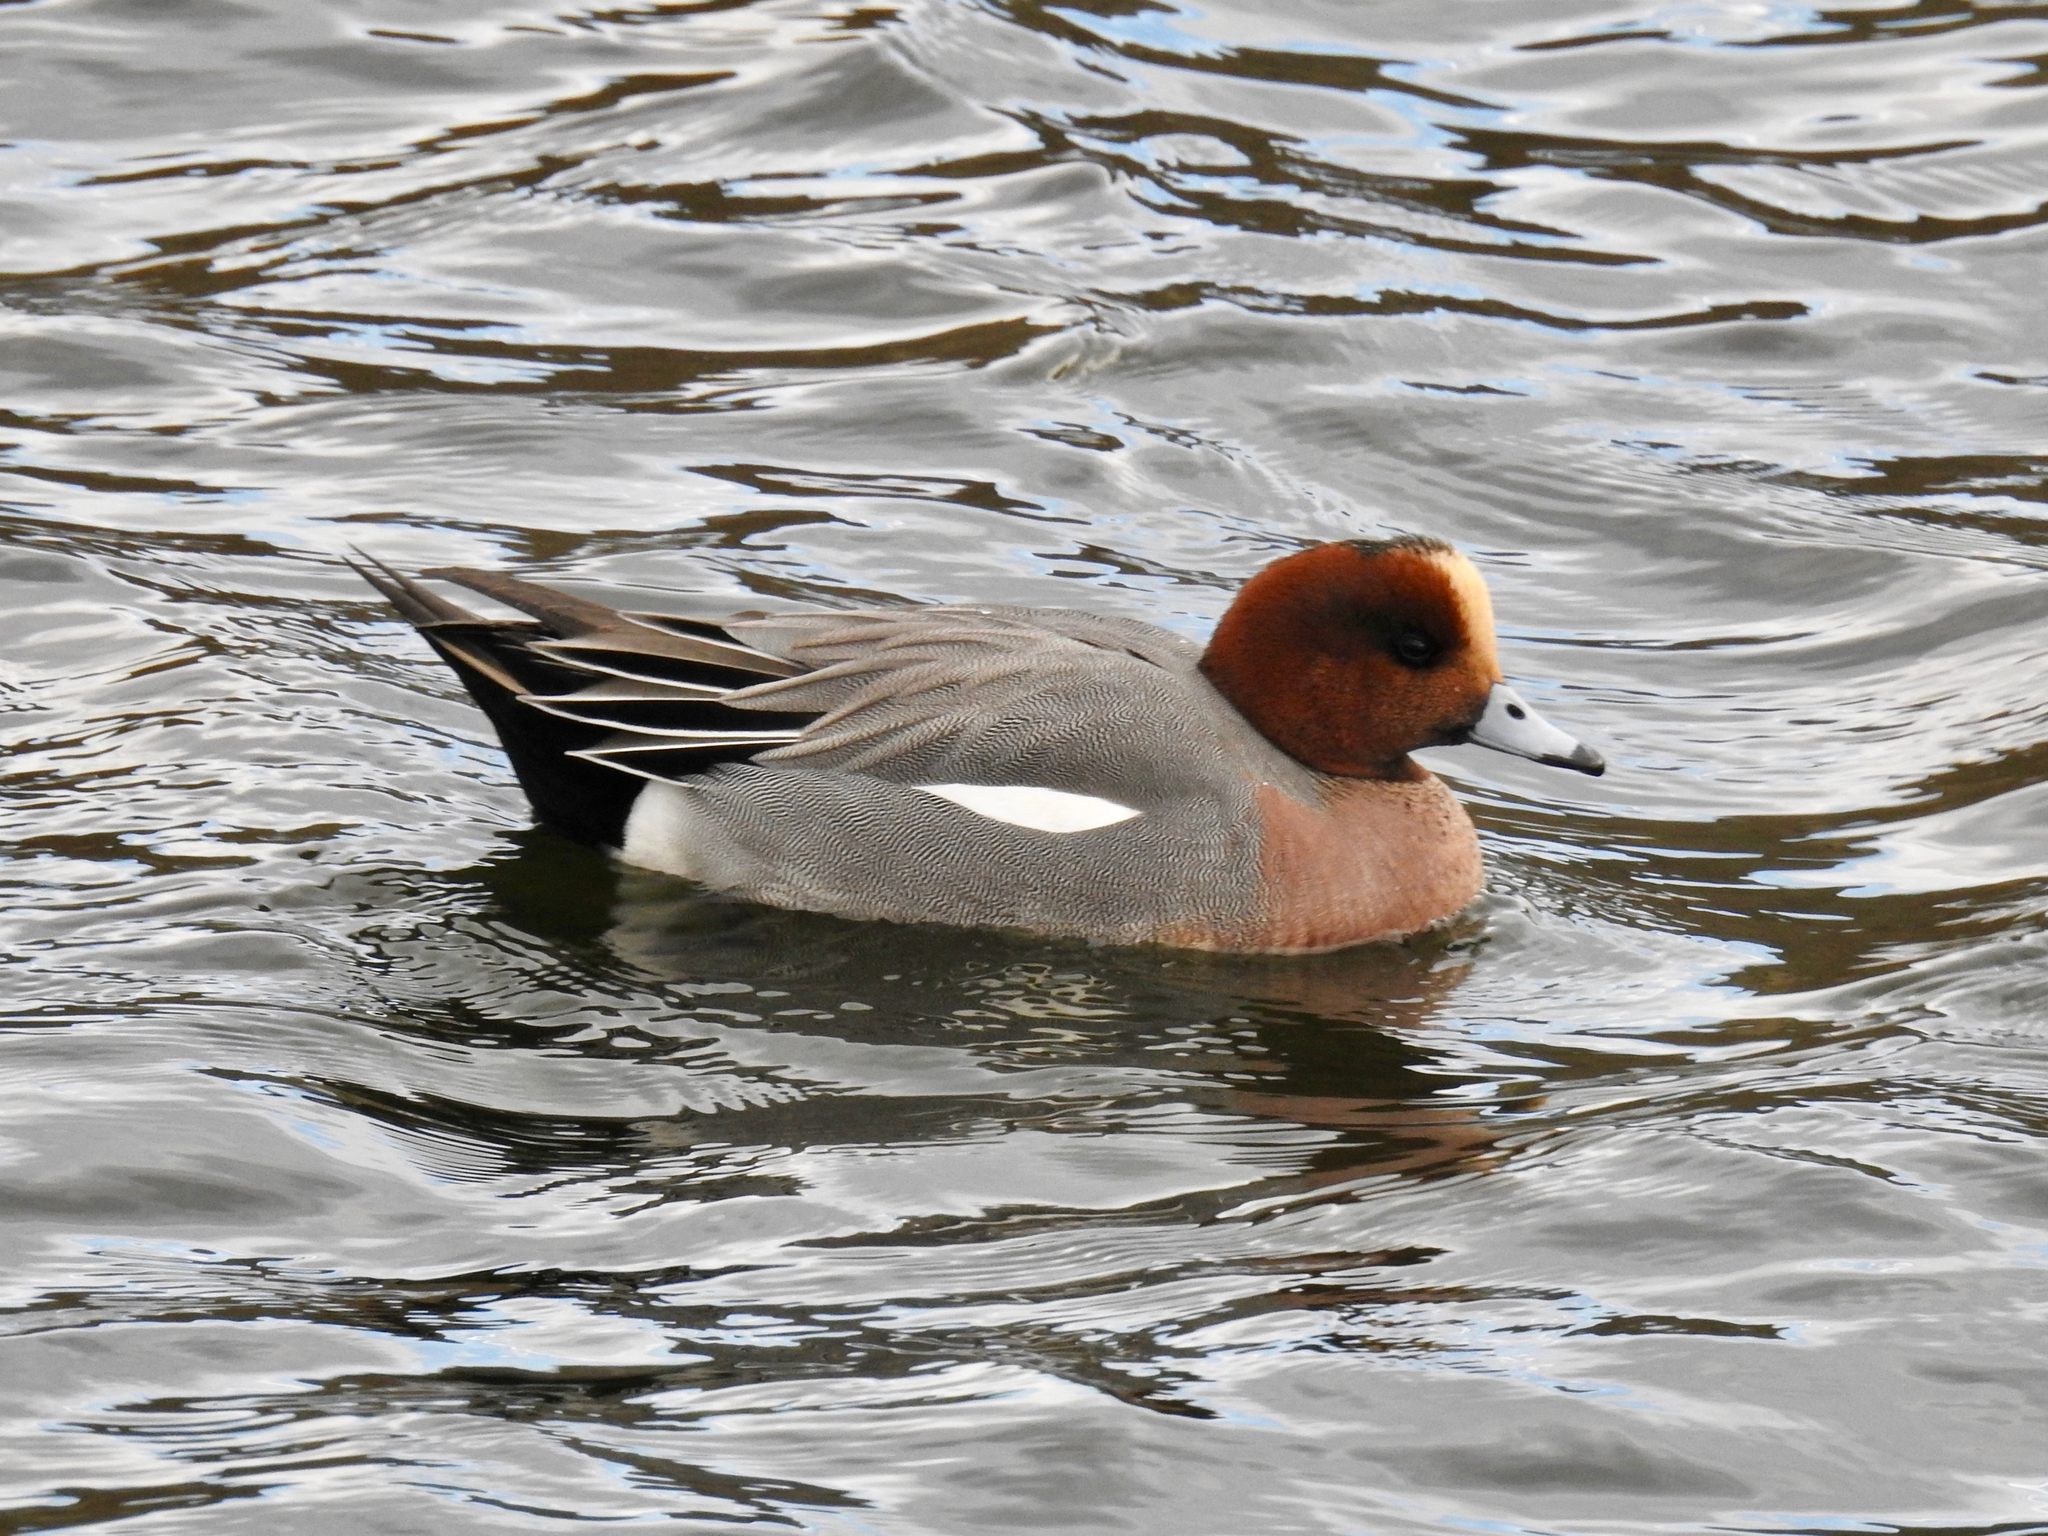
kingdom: Animalia
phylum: Chordata
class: Aves
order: Anseriformes
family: Anatidae
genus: Mareca
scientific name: Mareca penelope
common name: Eurasian wigeon
